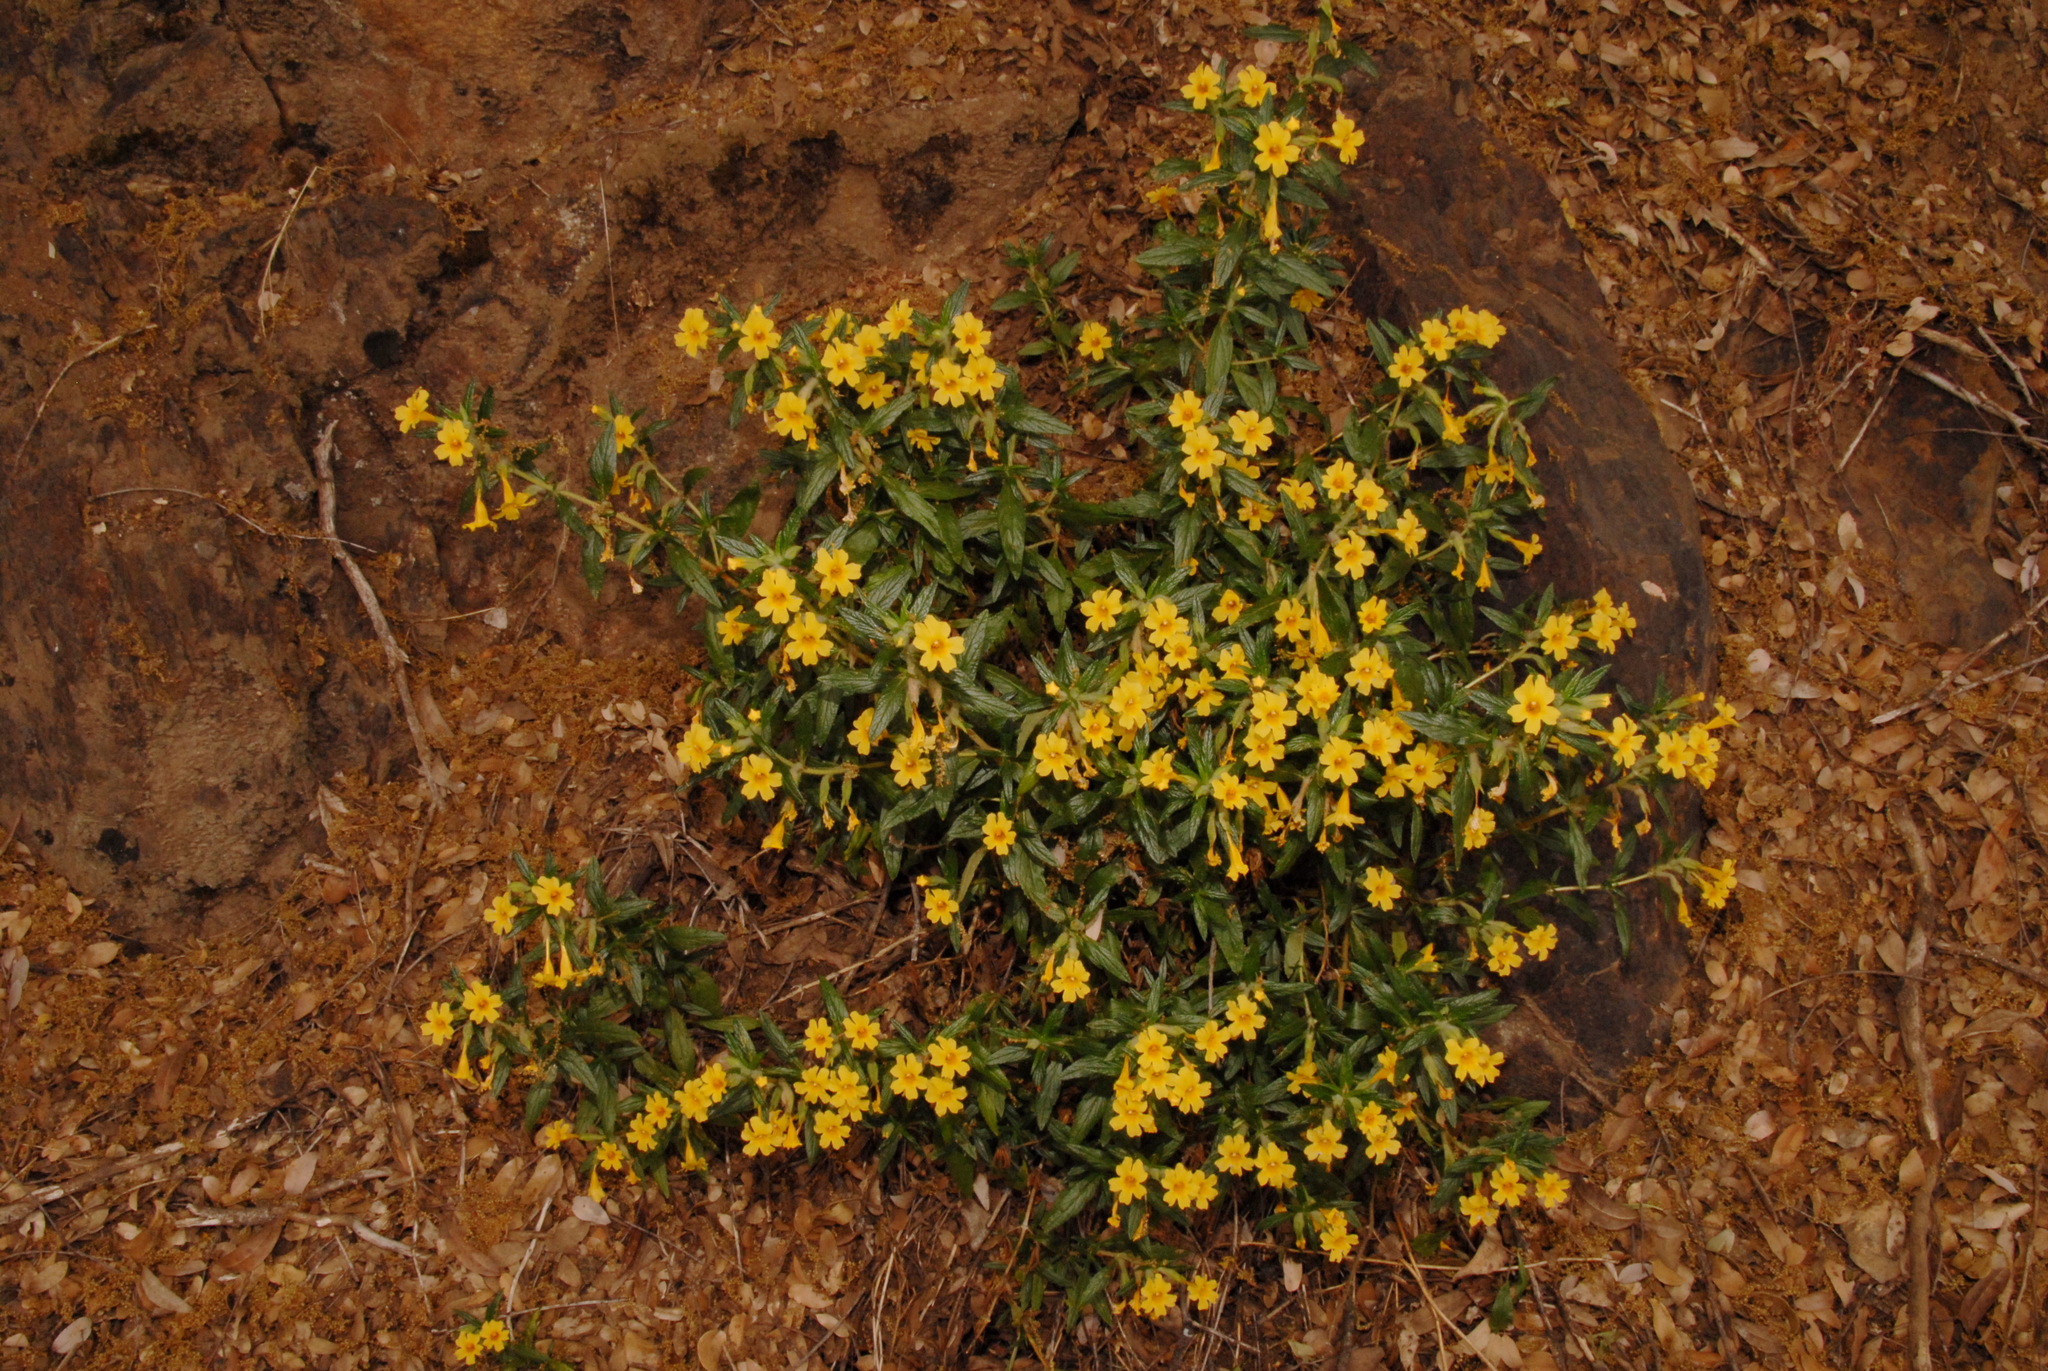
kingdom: Plantae
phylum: Tracheophyta
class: Magnoliopsida
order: Lamiales
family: Phrymaceae
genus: Diplacus
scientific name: Diplacus calycinus
